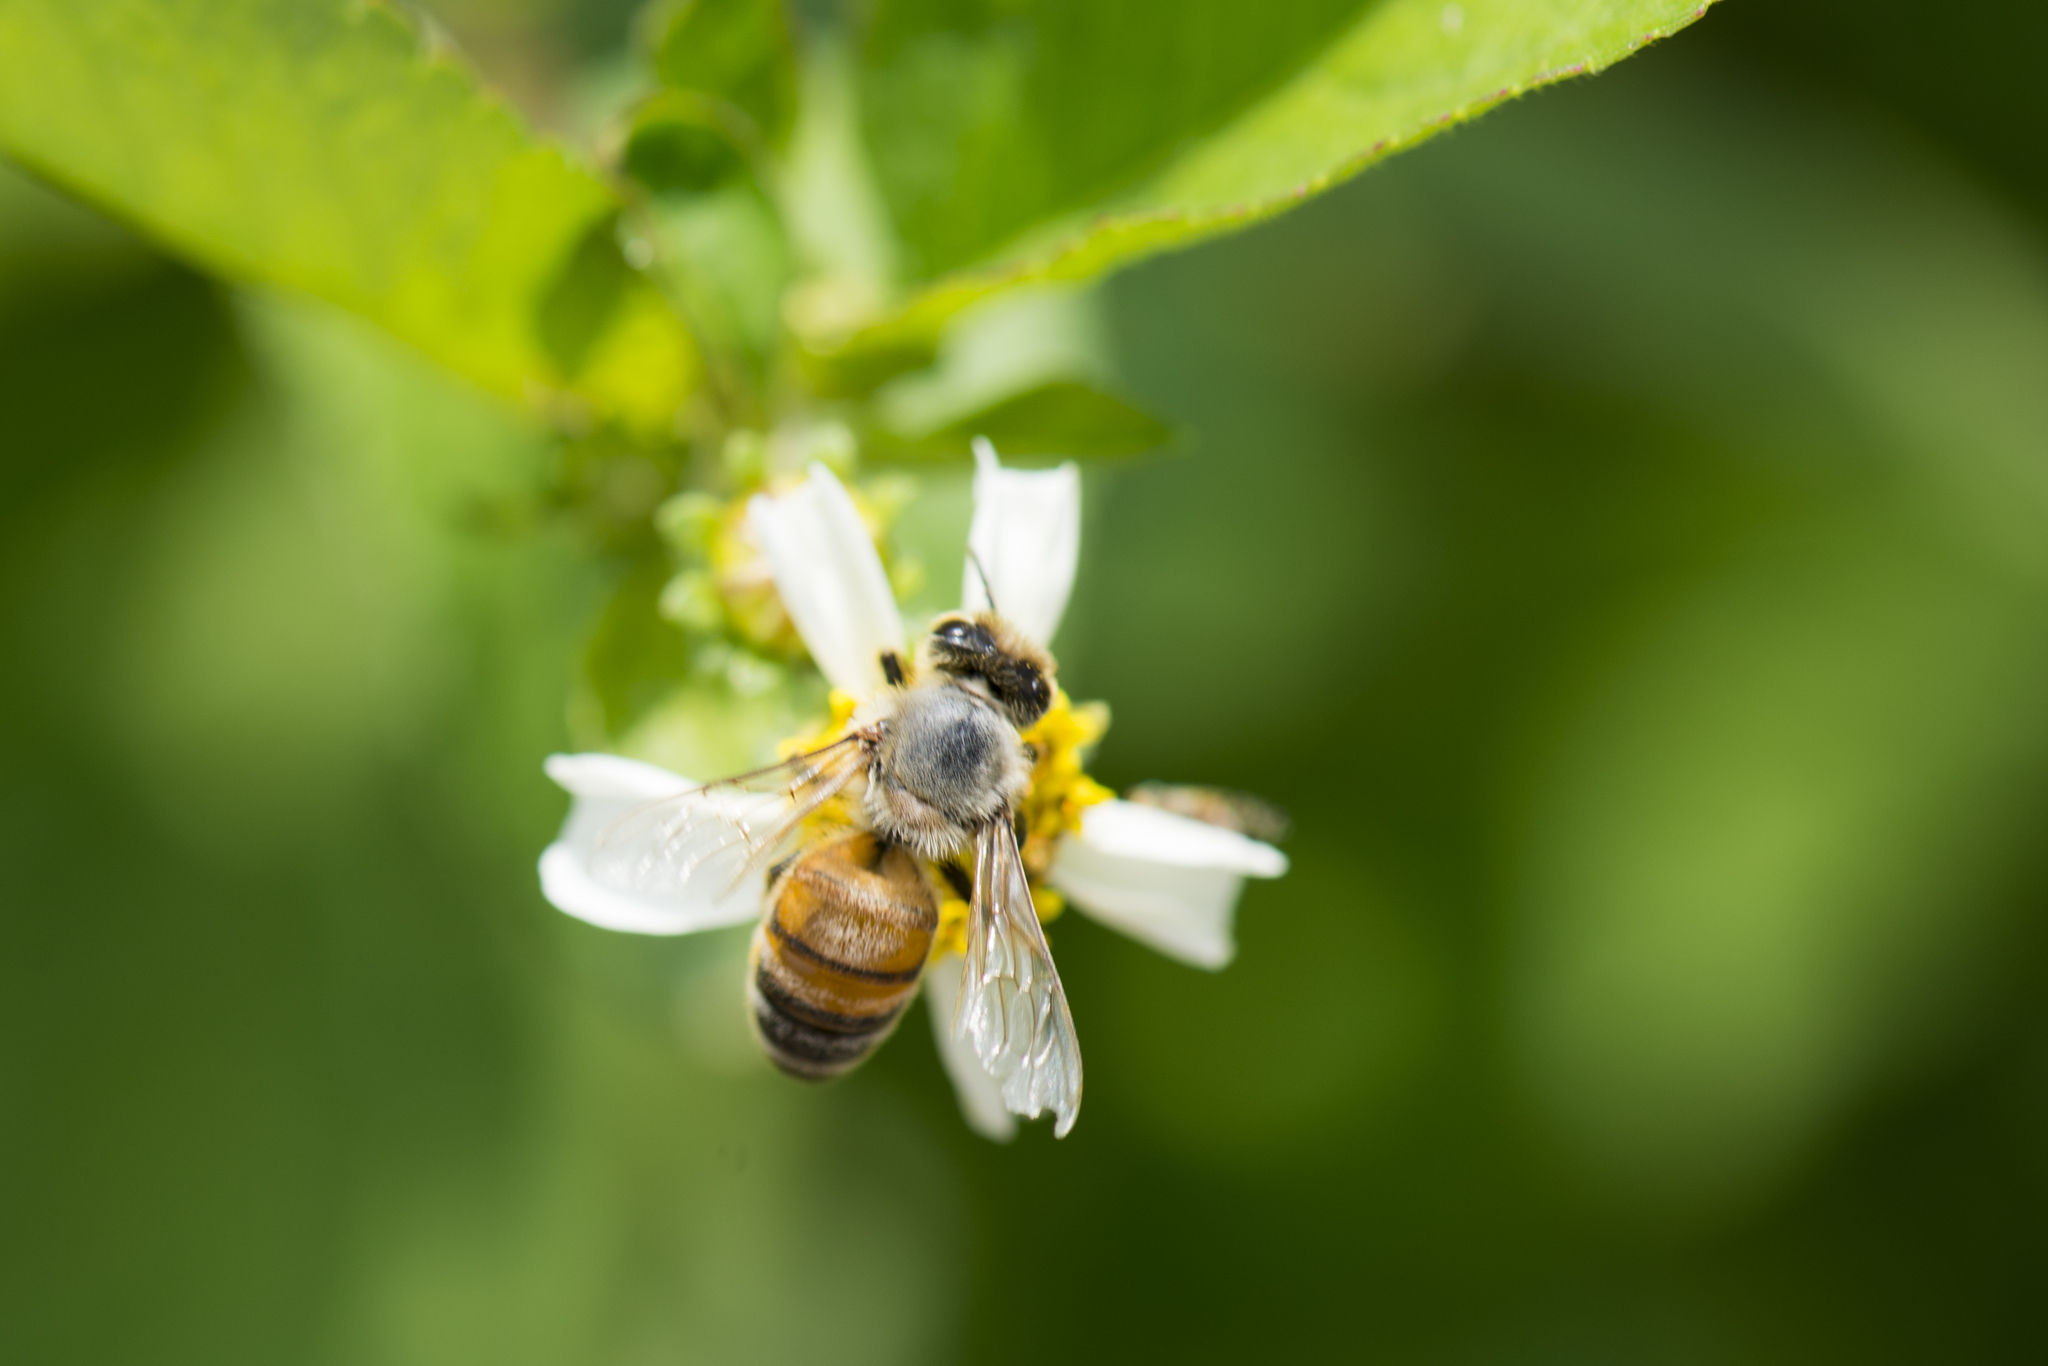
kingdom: Animalia
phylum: Arthropoda
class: Insecta
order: Hymenoptera
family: Apidae
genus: Apis
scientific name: Apis mellifera
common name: Honey bee
